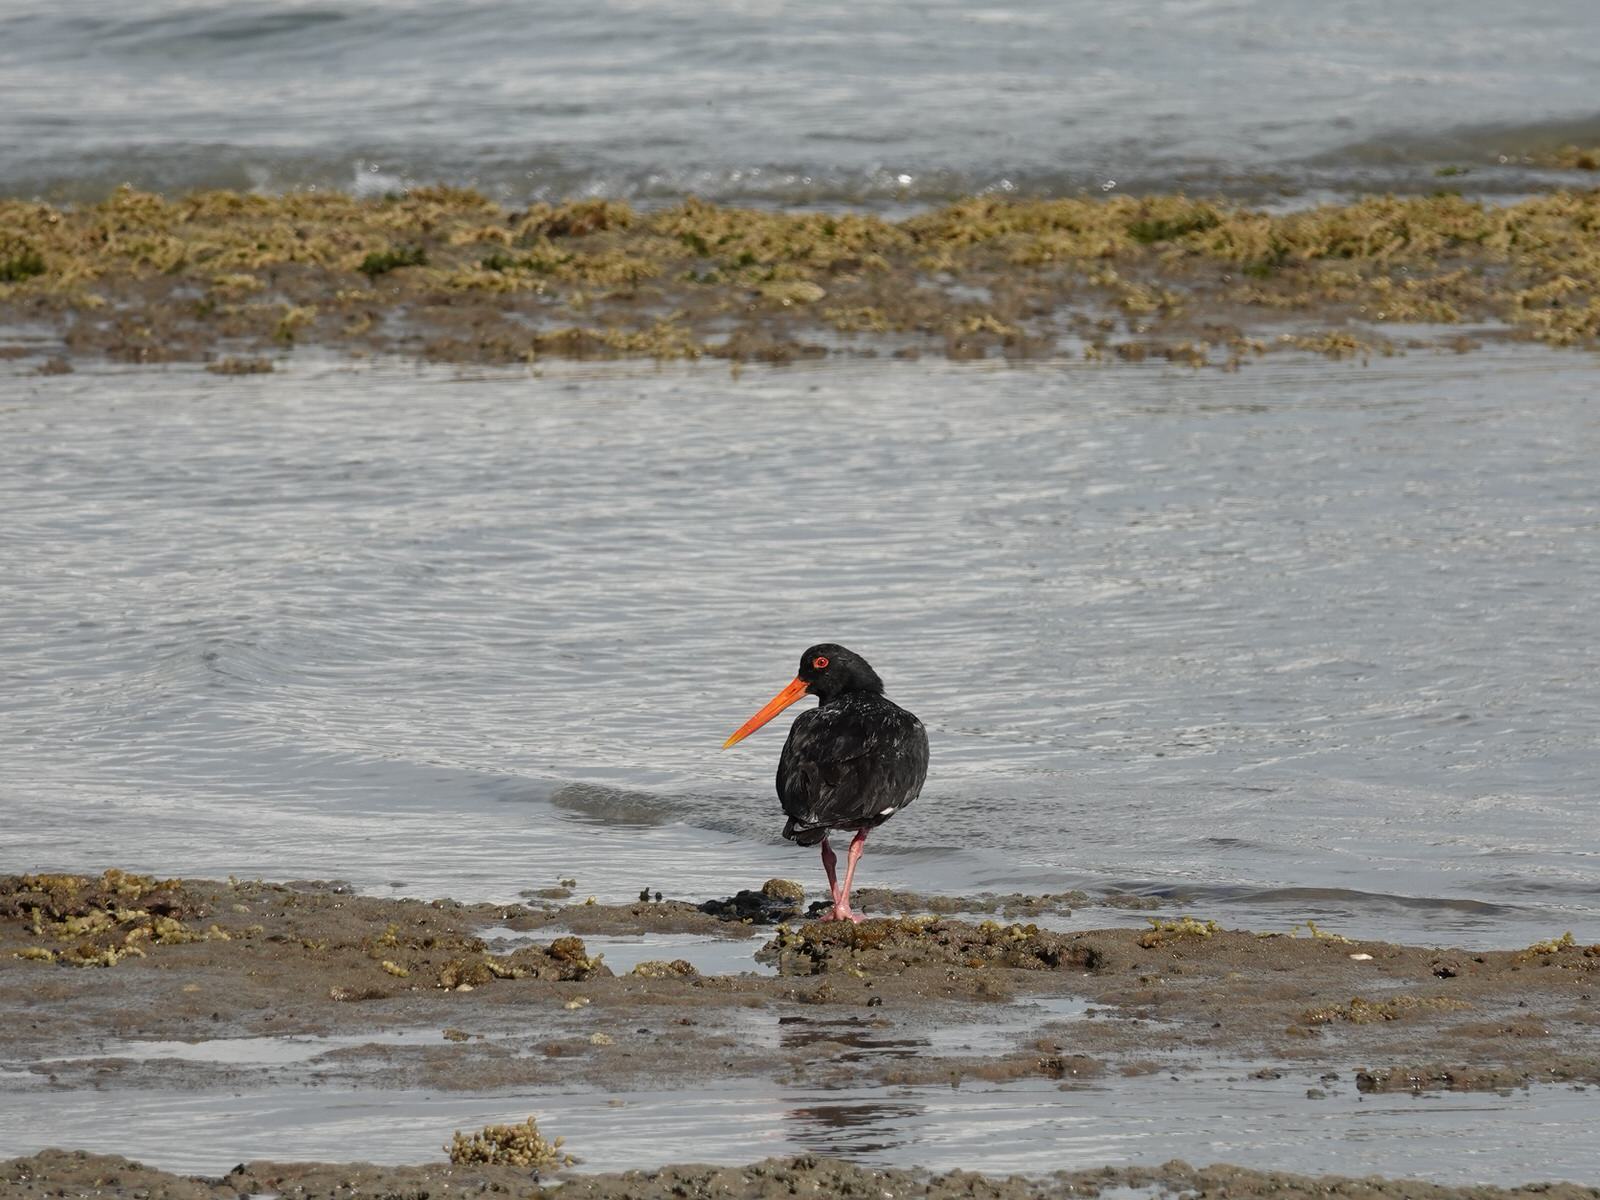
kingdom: Animalia
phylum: Chordata
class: Aves
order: Charadriiformes
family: Haematopodidae
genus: Haematopus
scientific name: Haematopus unicolor
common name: Variable oystercatcher
